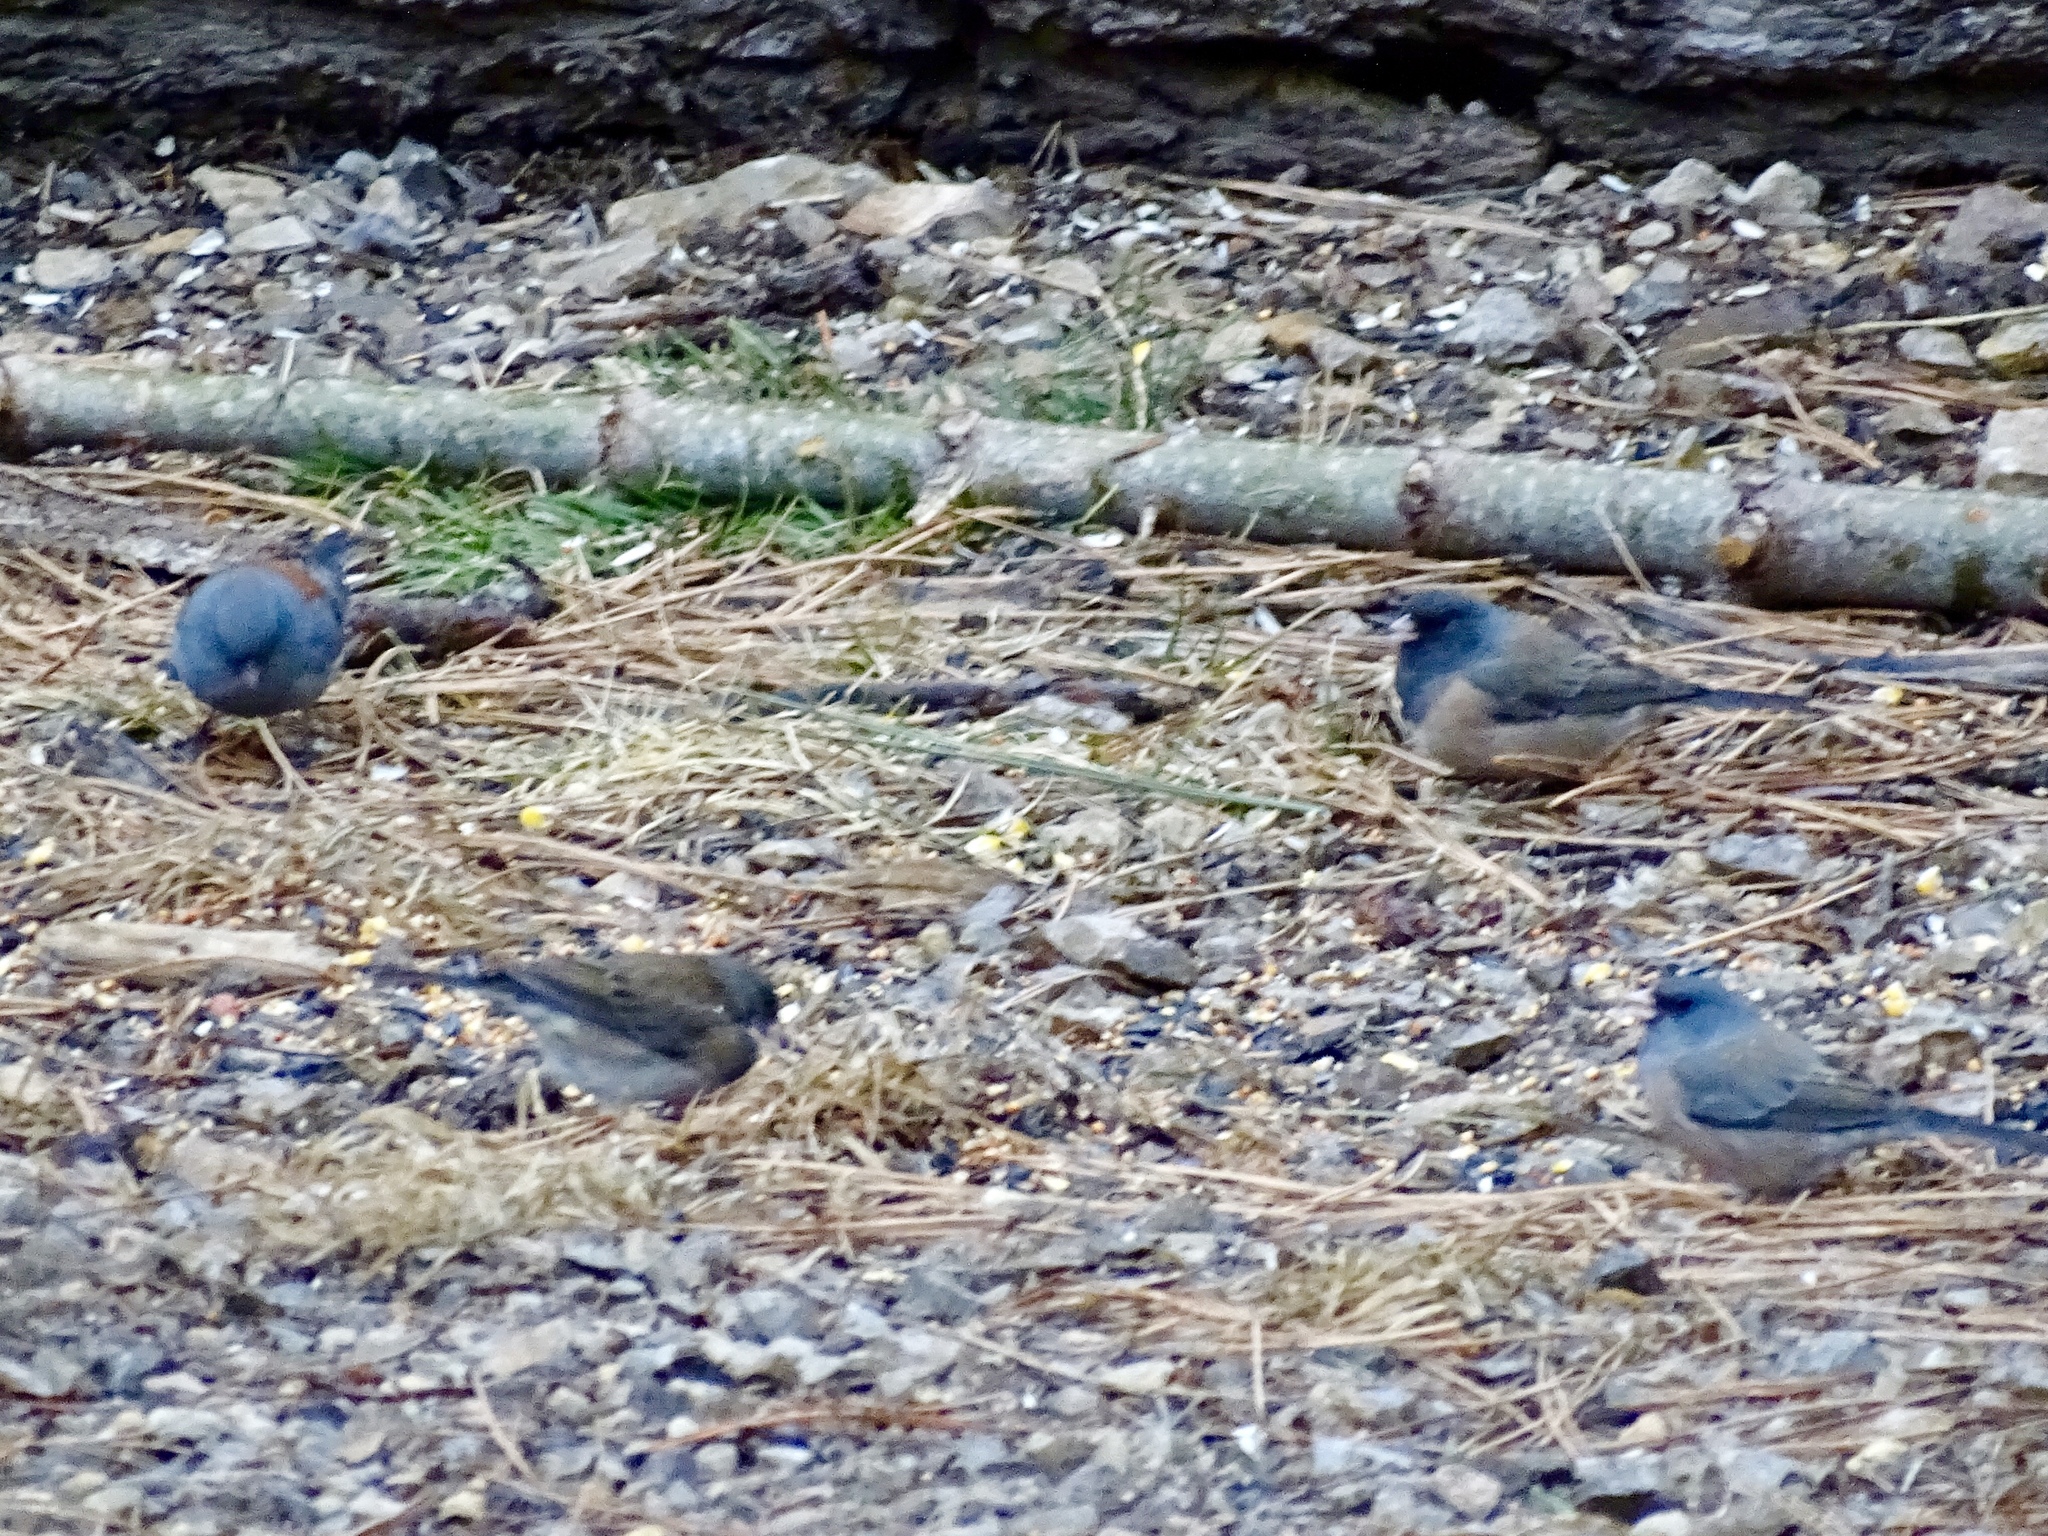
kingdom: Animalia
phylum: Chordata
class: Aves
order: Passeriformes
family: Passerellidae
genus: Junco
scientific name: Junco hyemalis
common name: Dark-eyed junco
